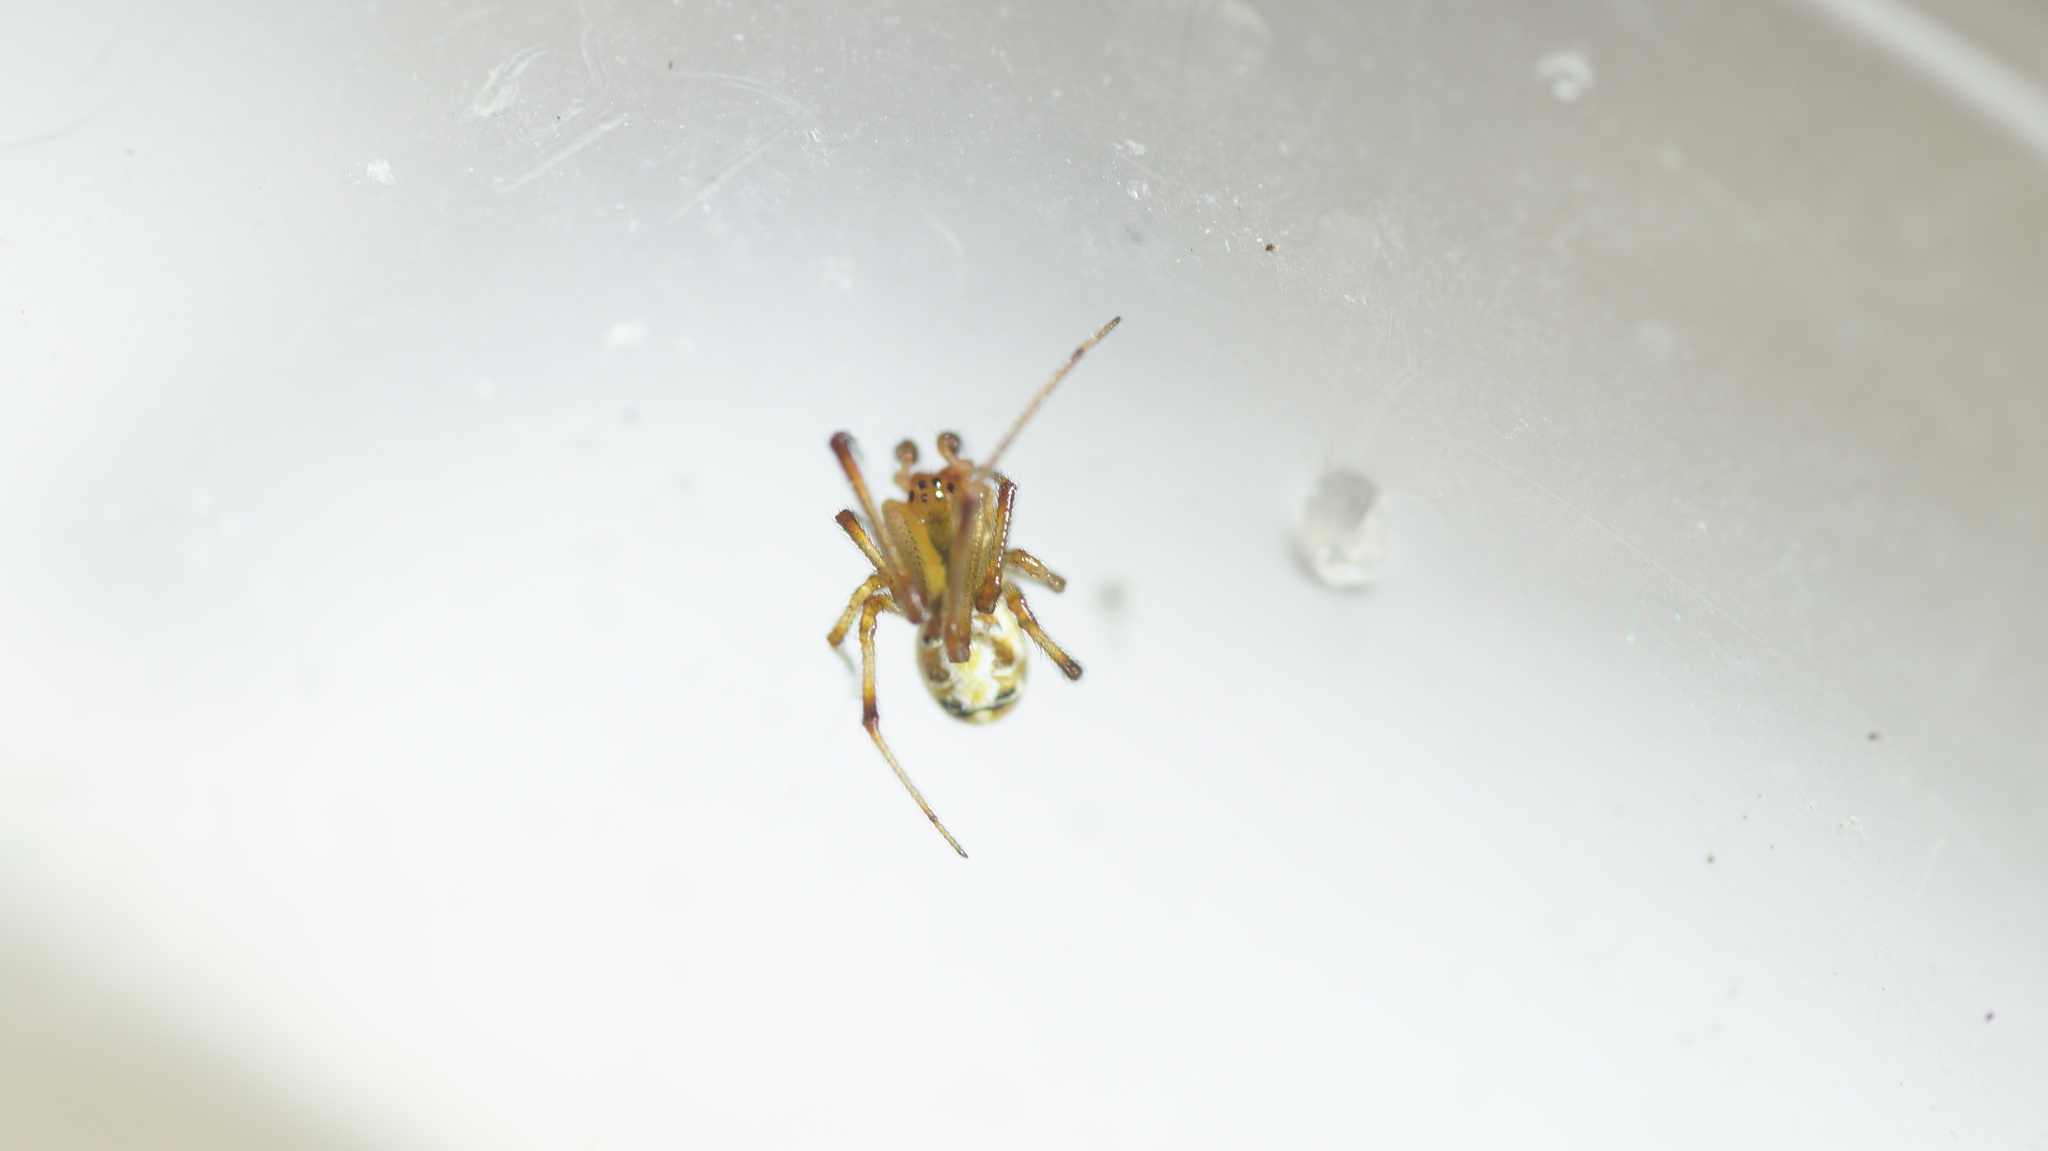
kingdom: Animalia
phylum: Arthropoda
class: Arachnida
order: Araneae
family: Theridiidae
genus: Phylloneta
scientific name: Phylloneta impressa
